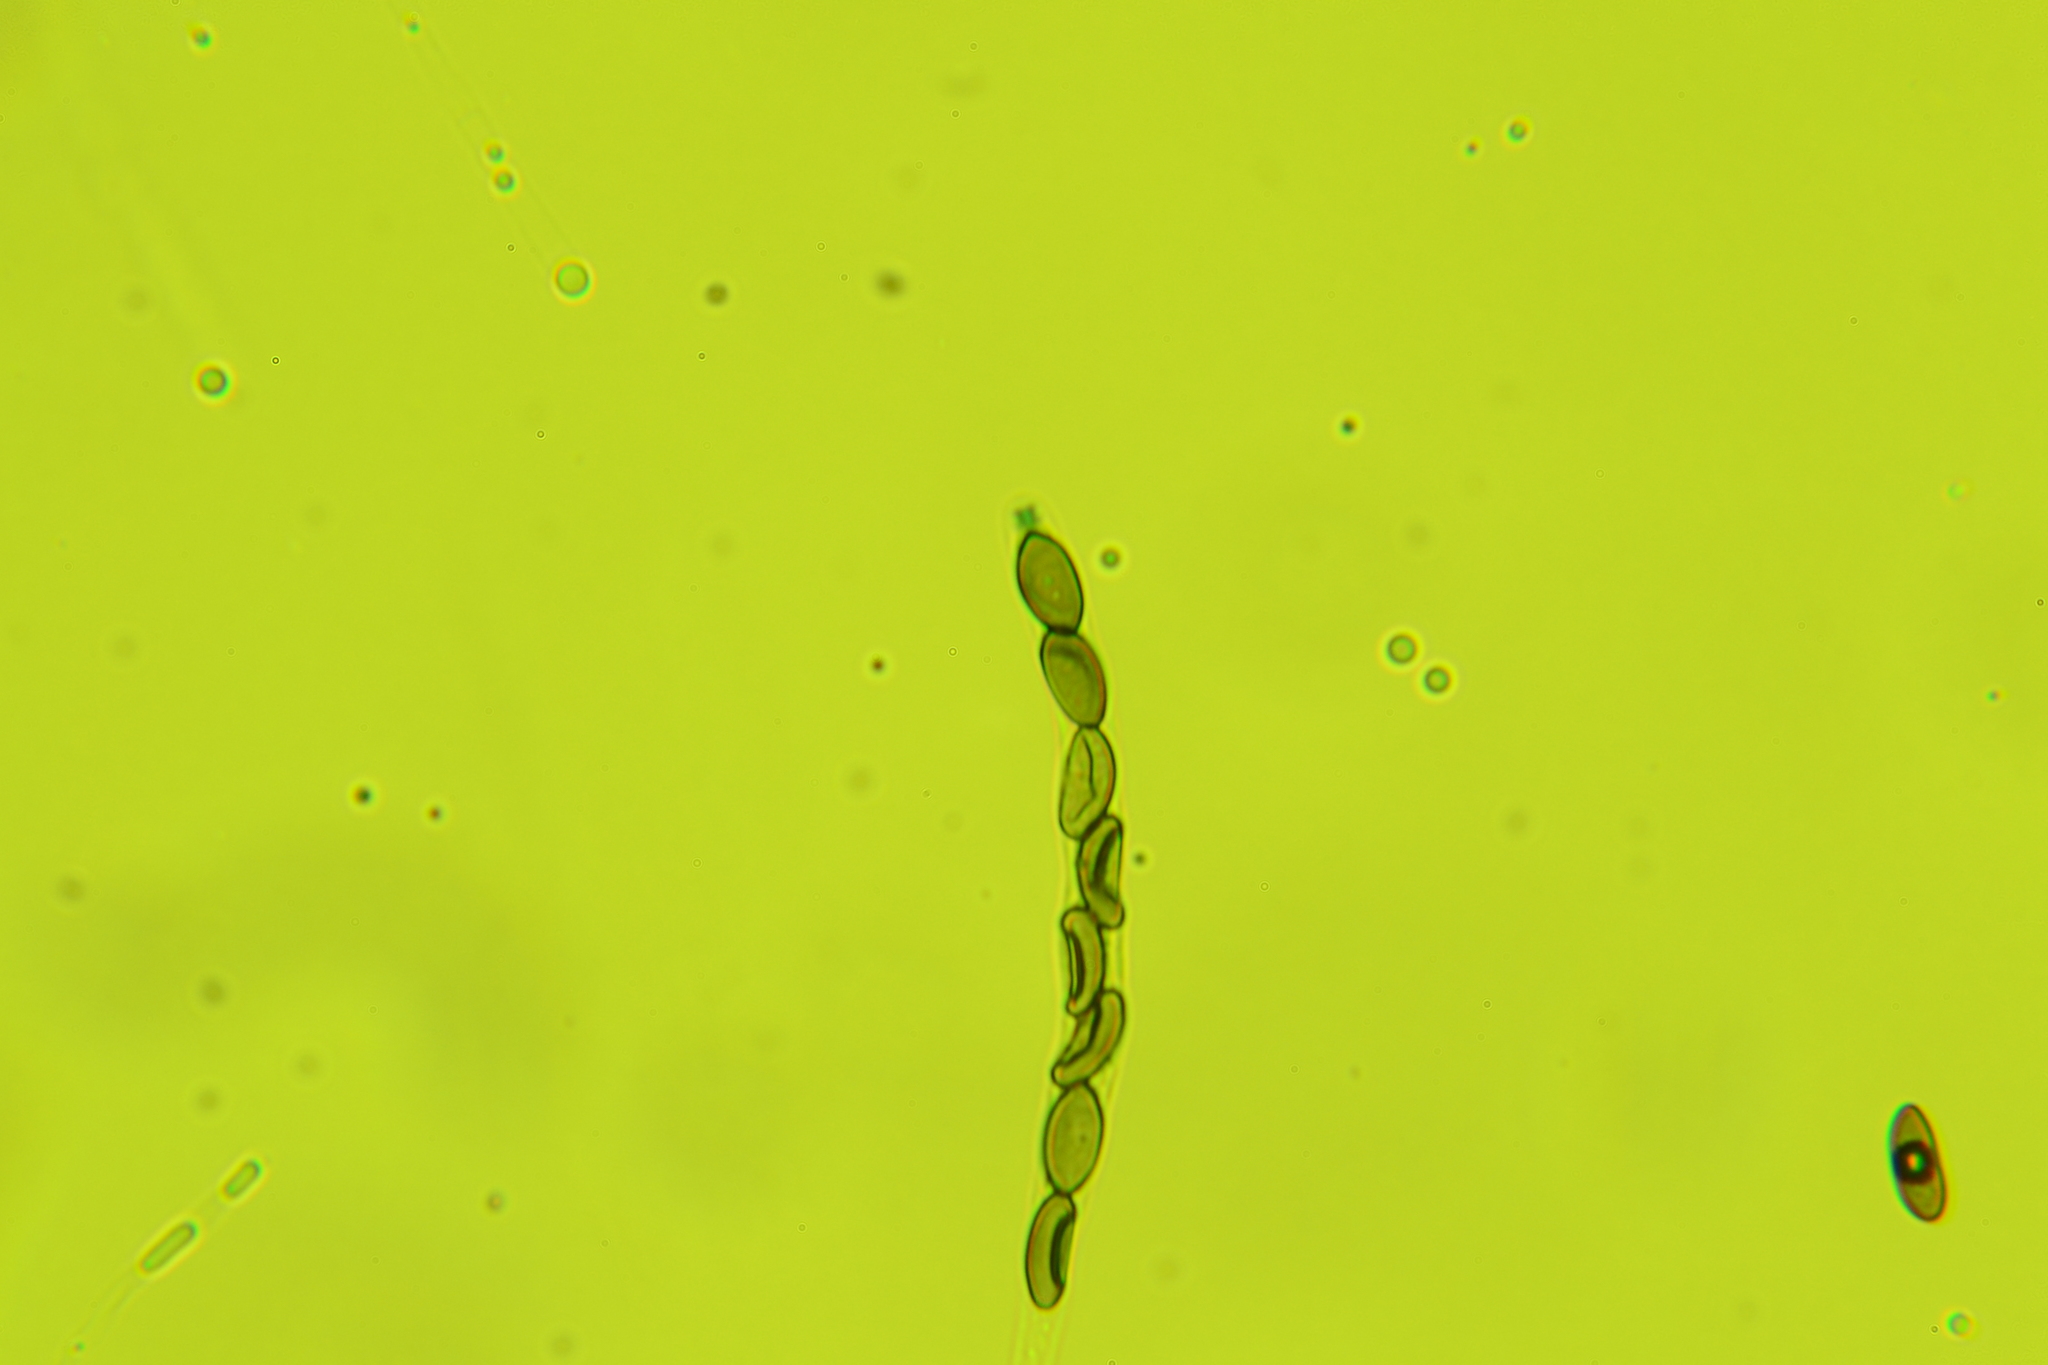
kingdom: Fungi
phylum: Ascomycota
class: Sordariomycetes
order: Xylariales
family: Xylariaceae
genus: Nemania
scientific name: Nemania ethancrensonii
